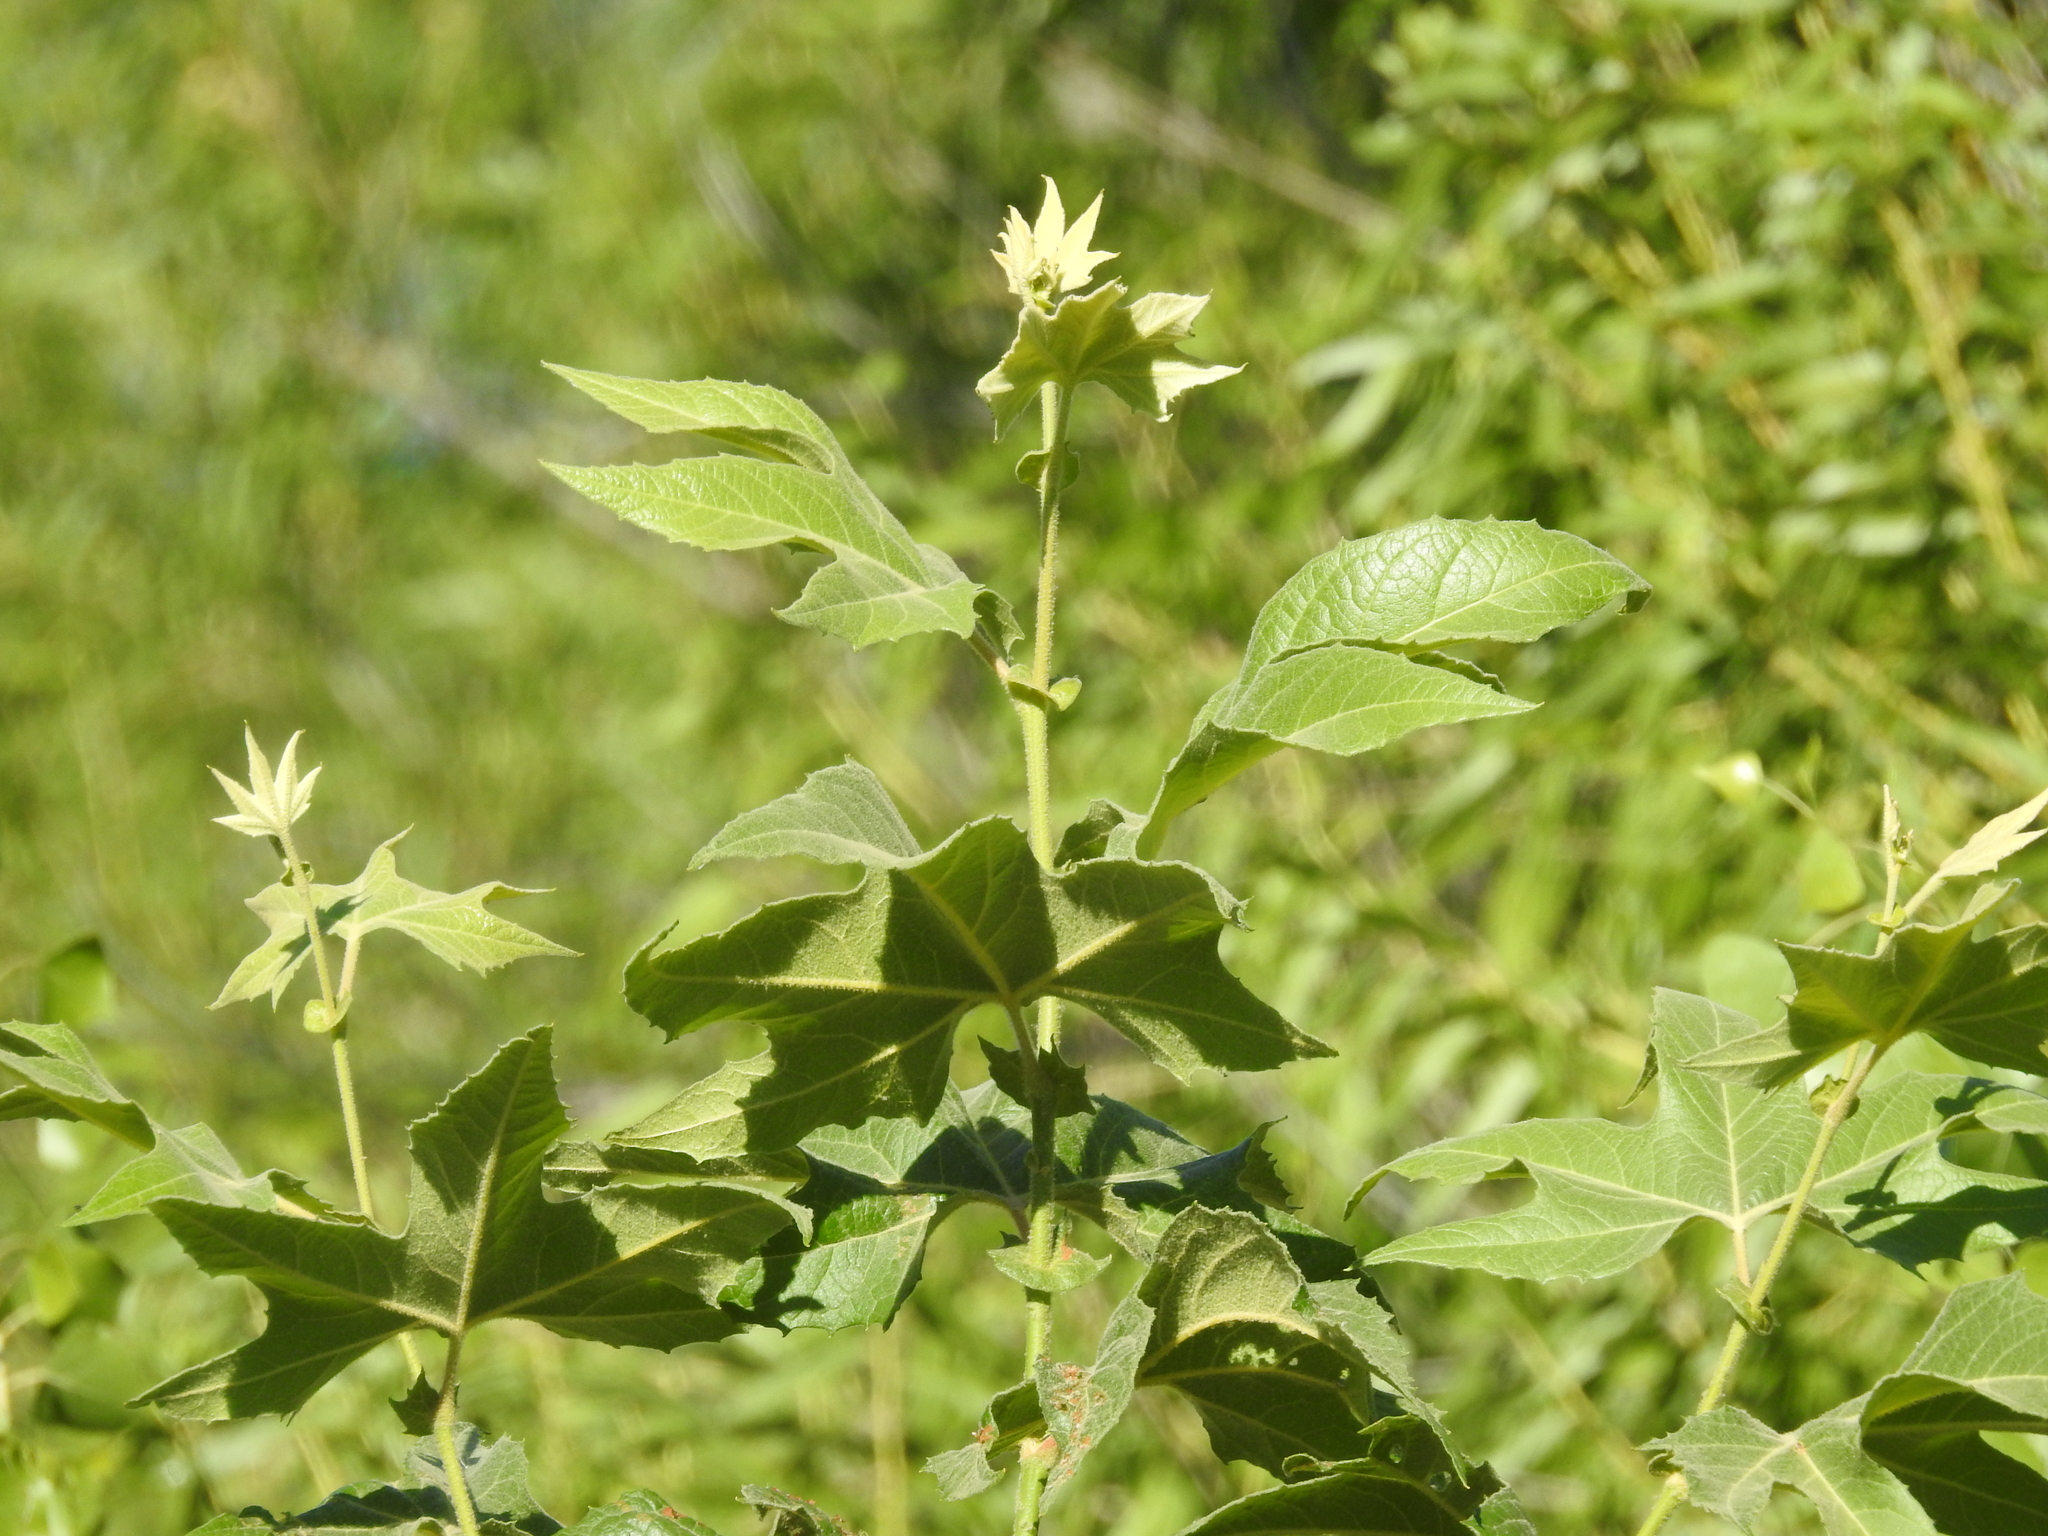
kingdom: Plantae
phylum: Tracheophyta
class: Magnoliopsida
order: Proteales
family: Platanaceae
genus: Platanus
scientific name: Platanus wrightii
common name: Arizona sycamore
